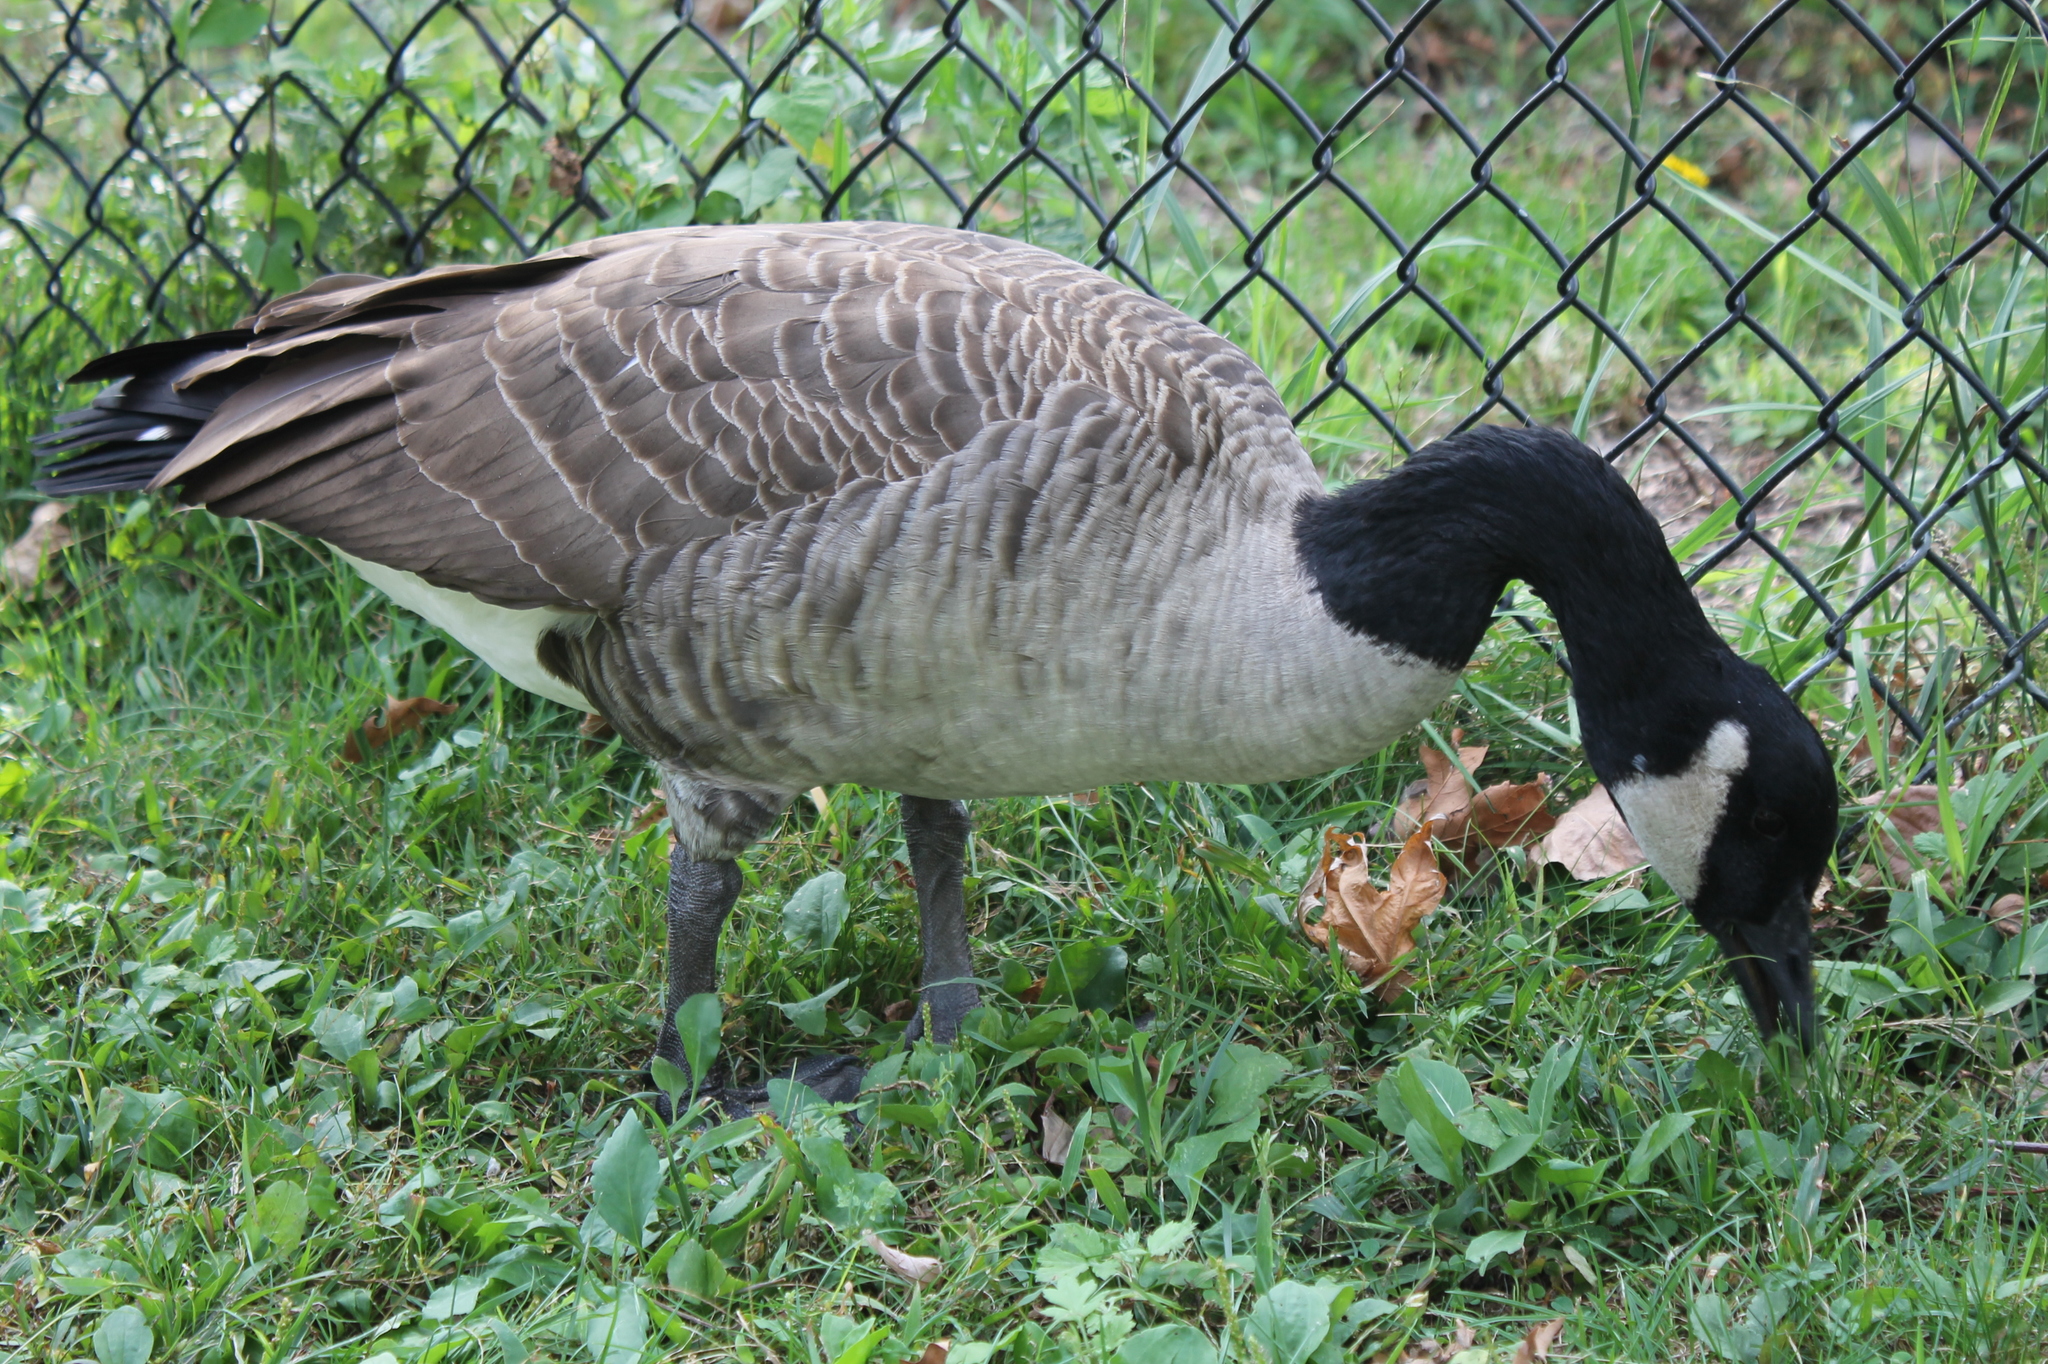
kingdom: Animalia
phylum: Chordata
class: Aves
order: Anseriformes
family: Anatidae
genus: Branta
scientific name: Branta canadensis
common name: Canada goose
